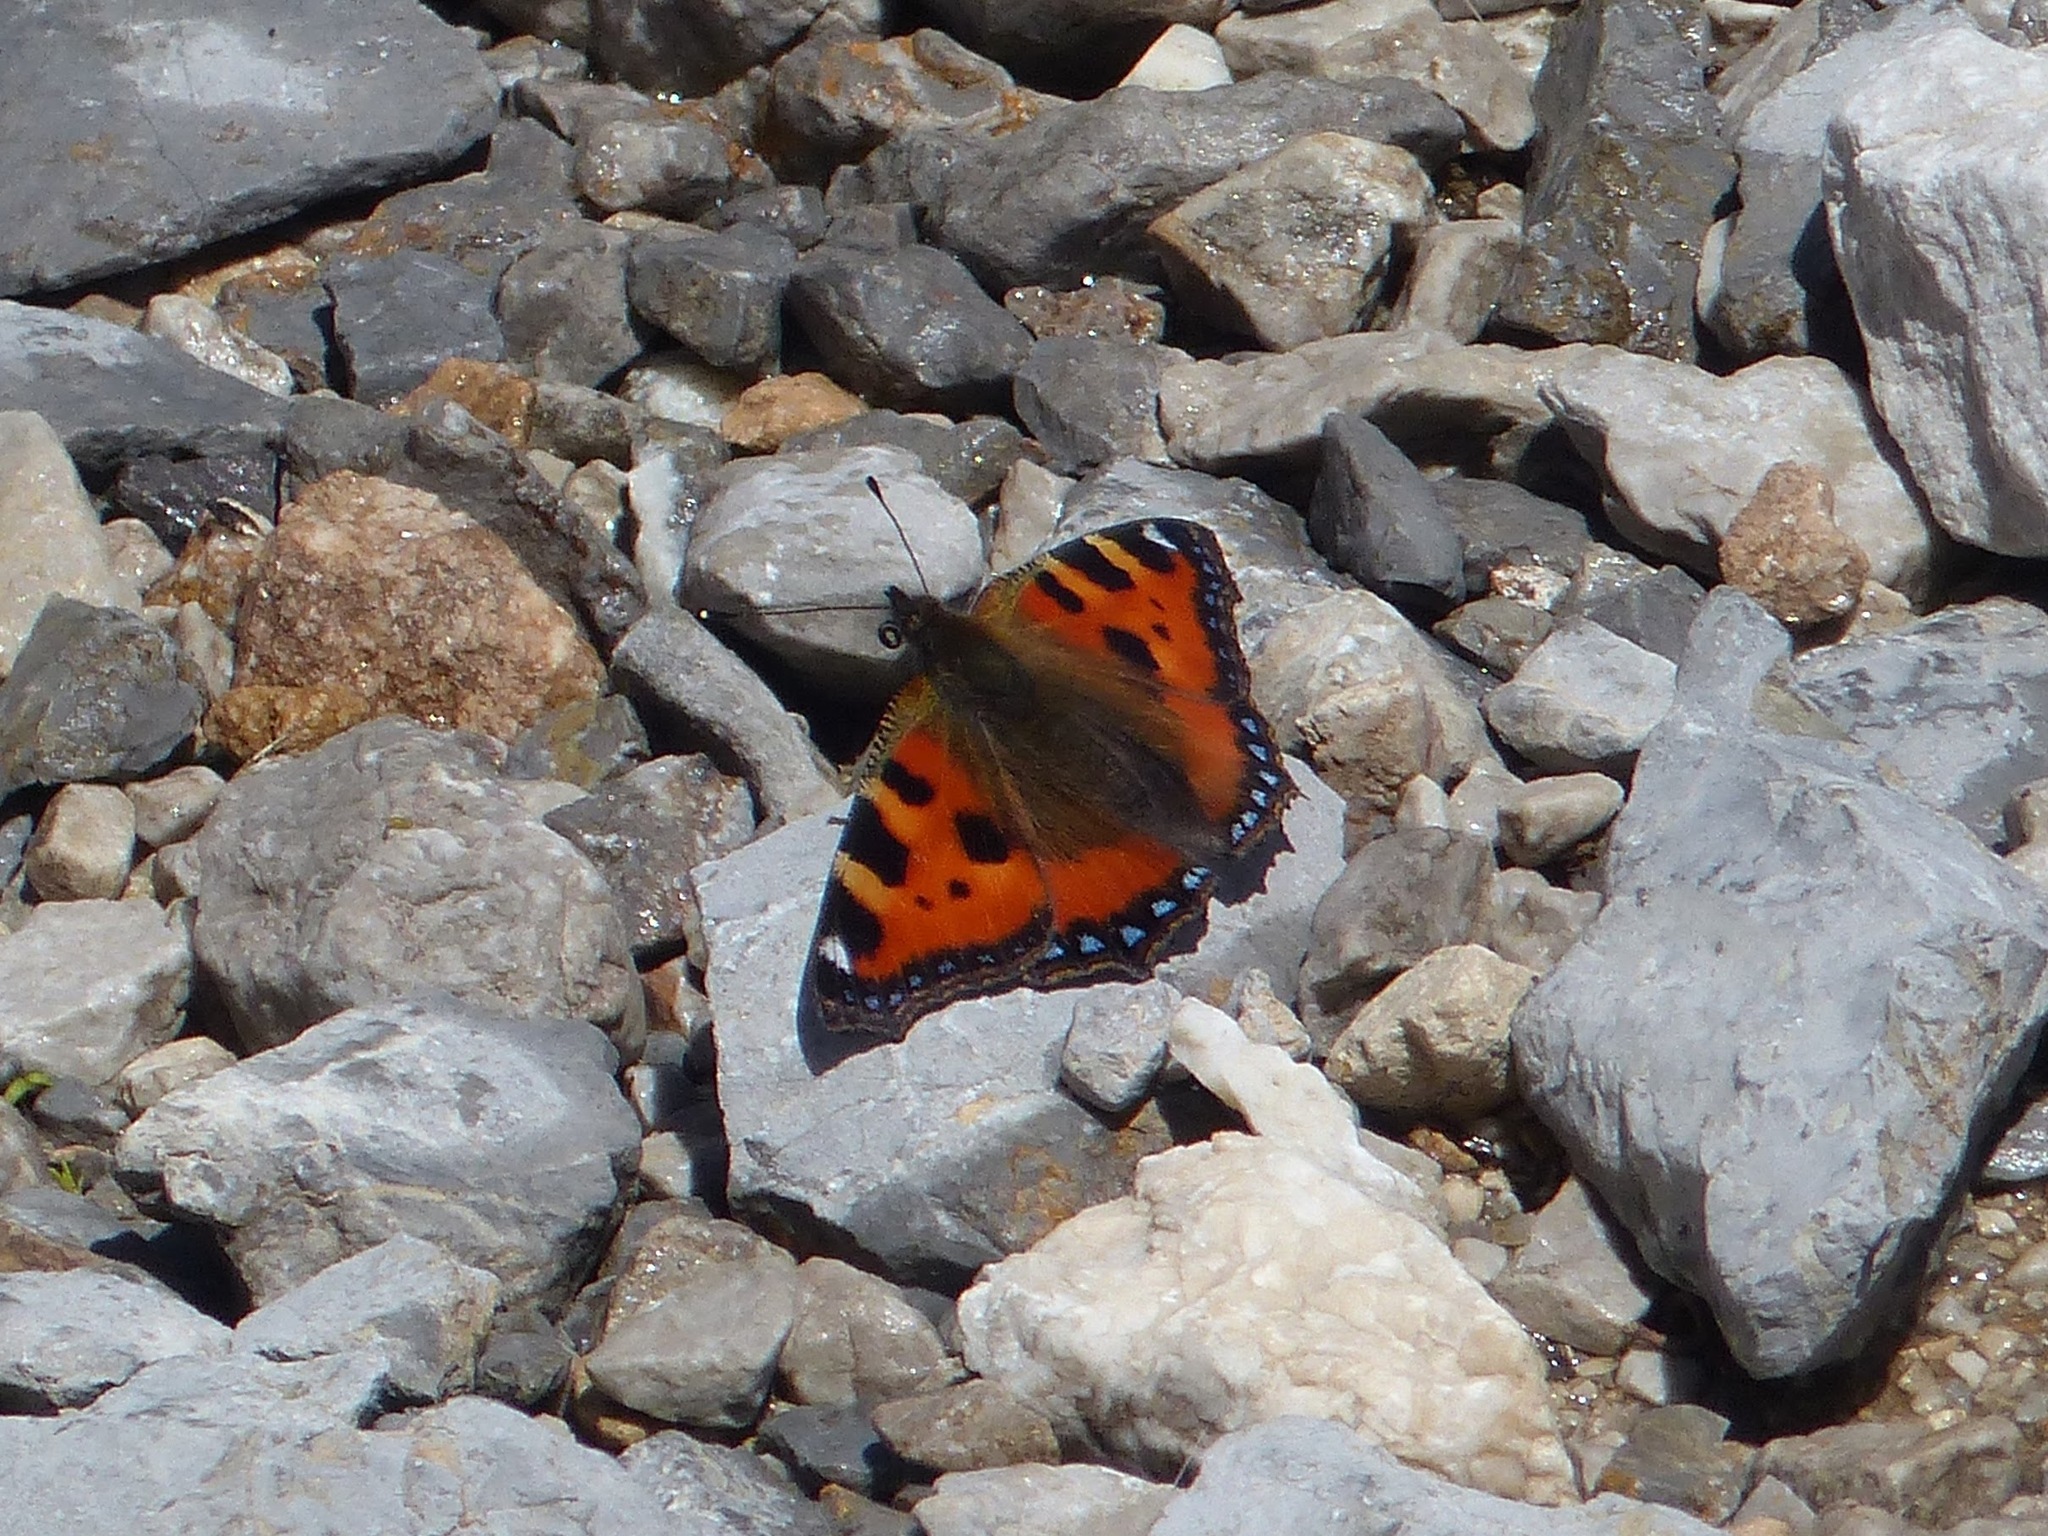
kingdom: Animalia
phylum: Arthropoda
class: Insecta
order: Lepidoptera
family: Nymphalidae
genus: Aglais
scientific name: Aglais urticae
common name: Small tortoiseshell
